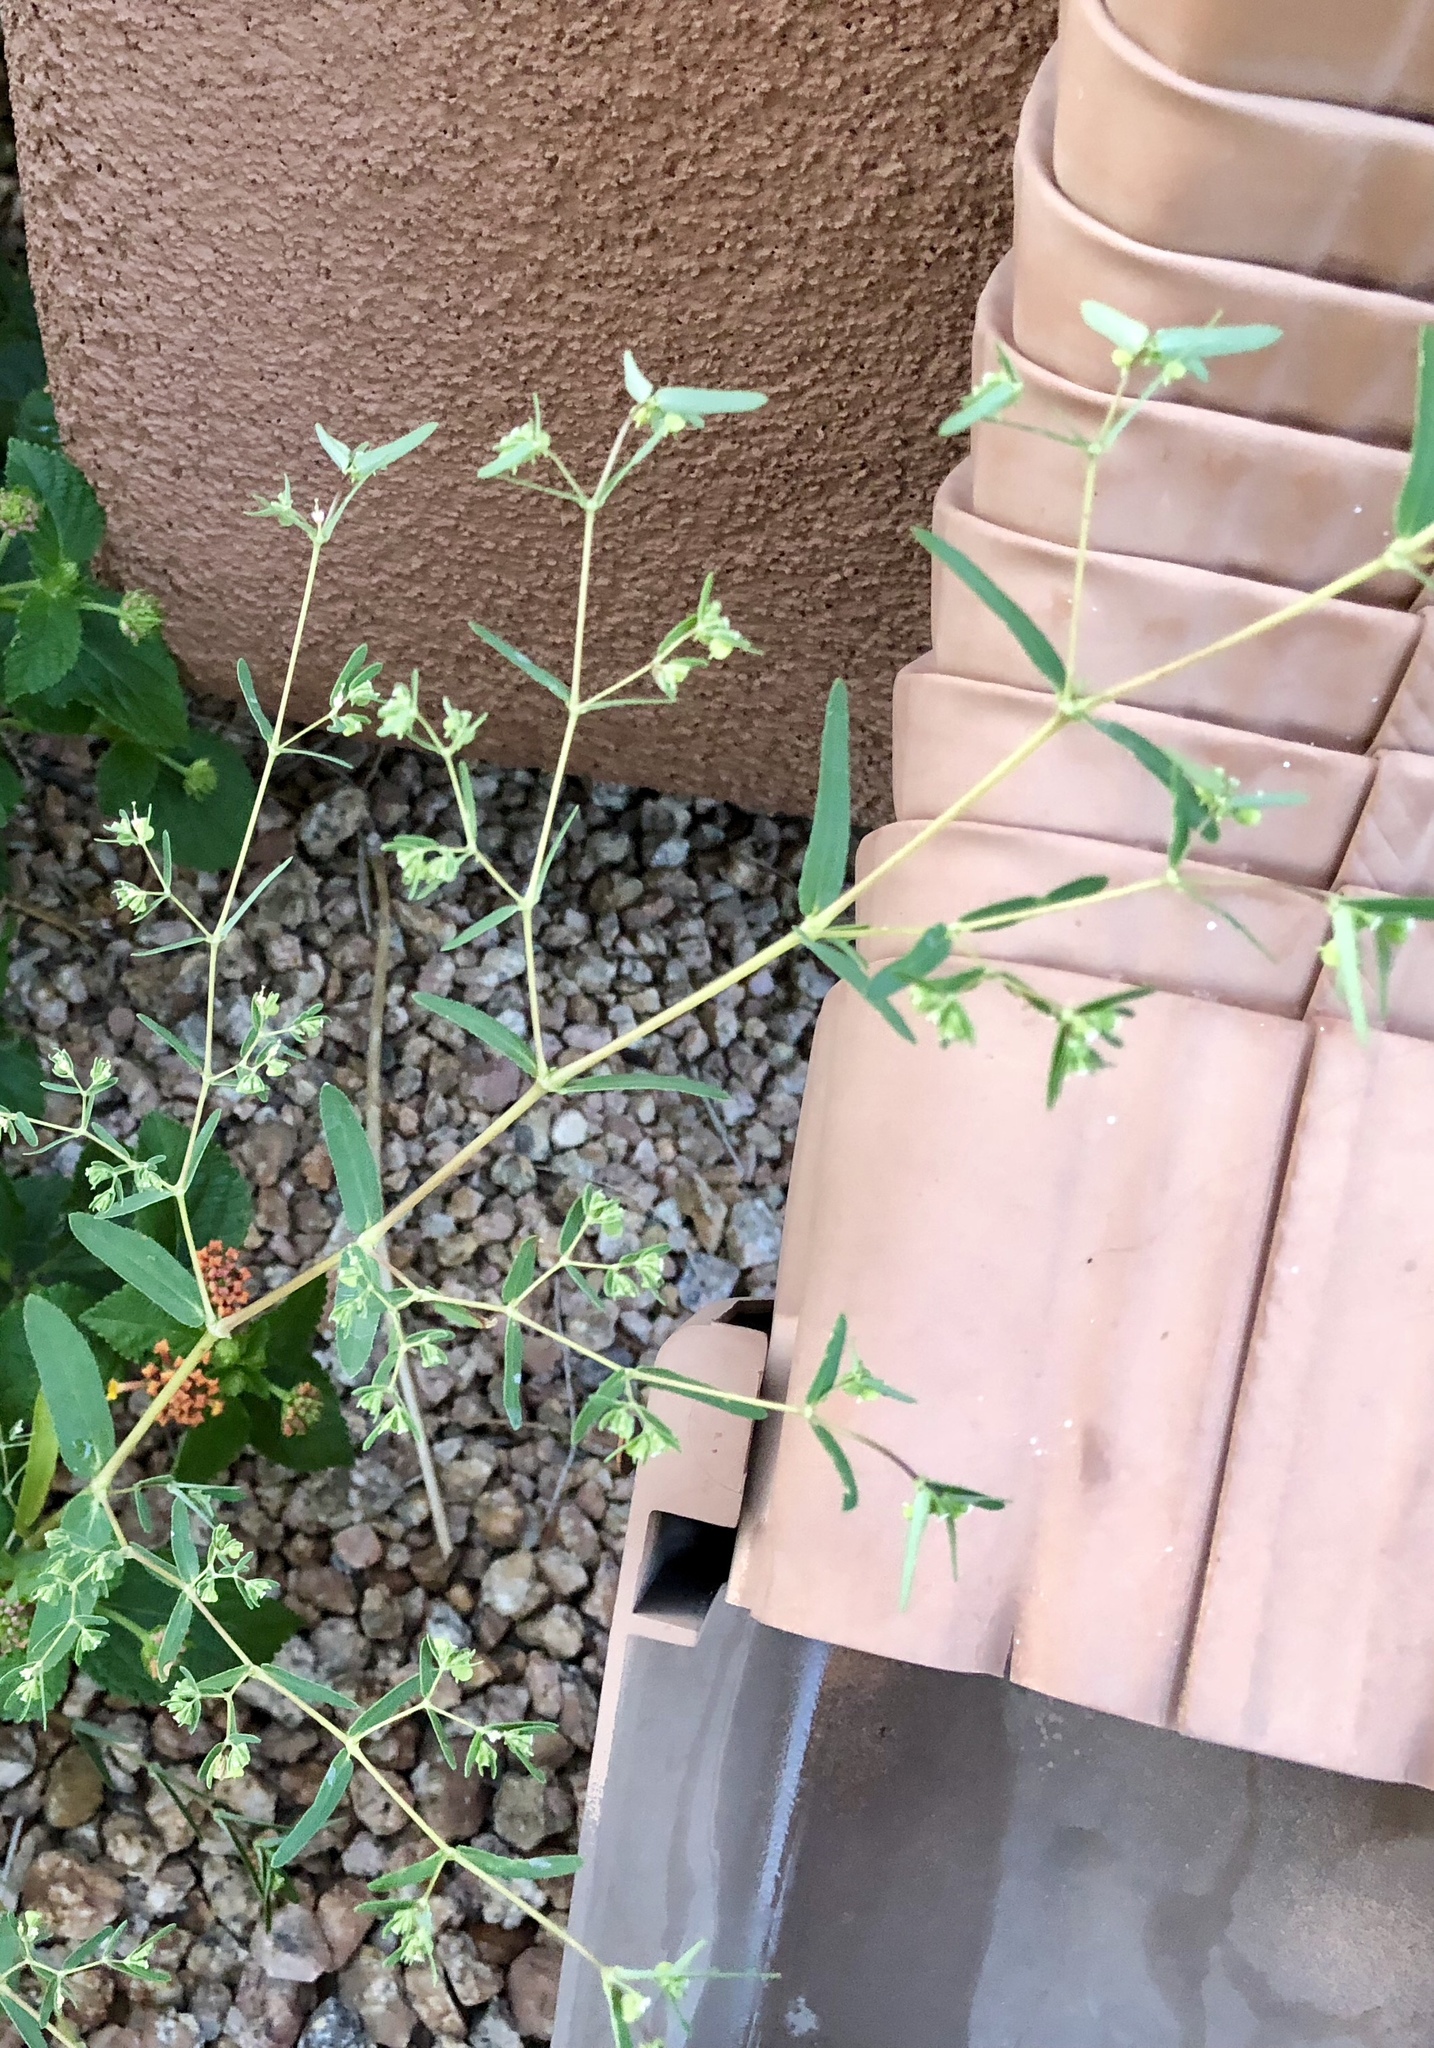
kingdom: Plantae
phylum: Tracheophyta
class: Magnoliopsida
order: Malpighiales
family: Euphorbiaceae
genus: Euphorbia
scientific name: Euphorbia hyssopifolia
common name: Hyssopleaf sandmat
